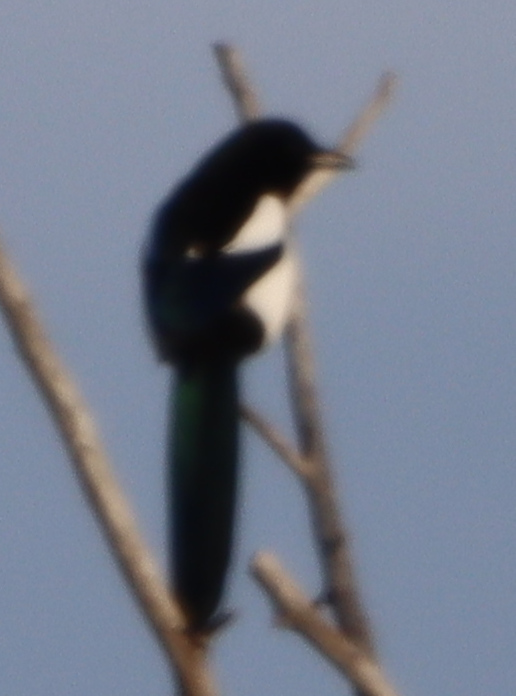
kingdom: Animalia
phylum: Chordata
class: Aves
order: Passeriformes
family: Corvidae
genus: Pica
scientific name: Pica hudsonia
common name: Black-billed magpie
